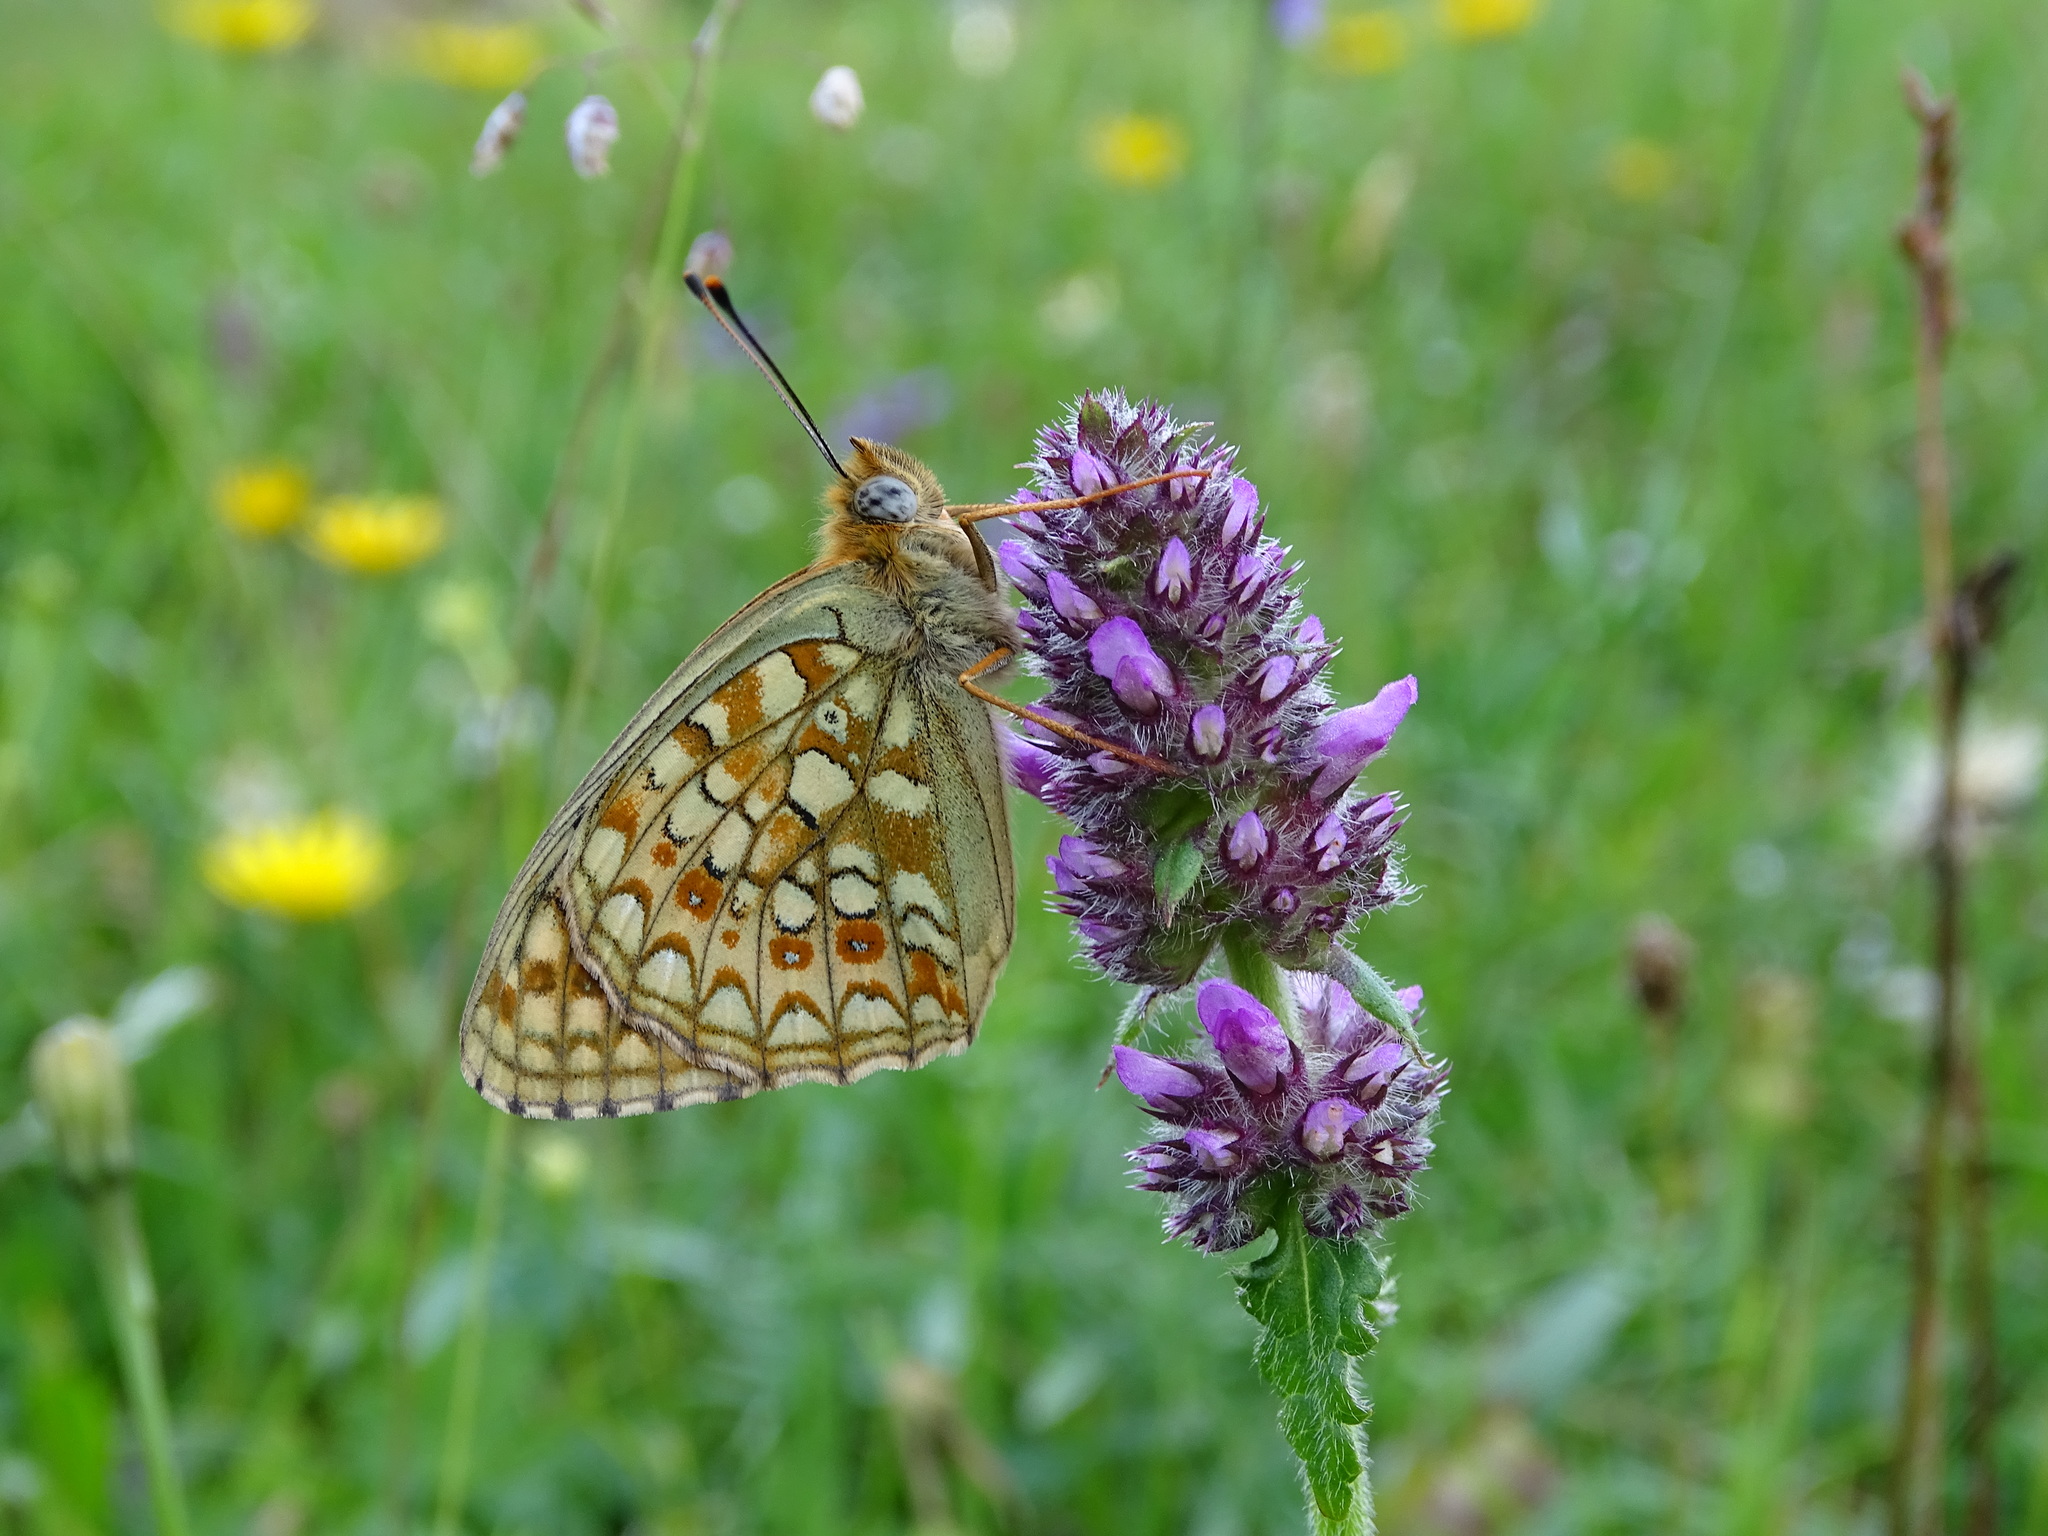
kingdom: Animalia
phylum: Arthropoda
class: Insecta
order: Lepidoptera
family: Nymphalidae
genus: Fabriciana
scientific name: Fabriciana niobe
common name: Niobe fritillary
